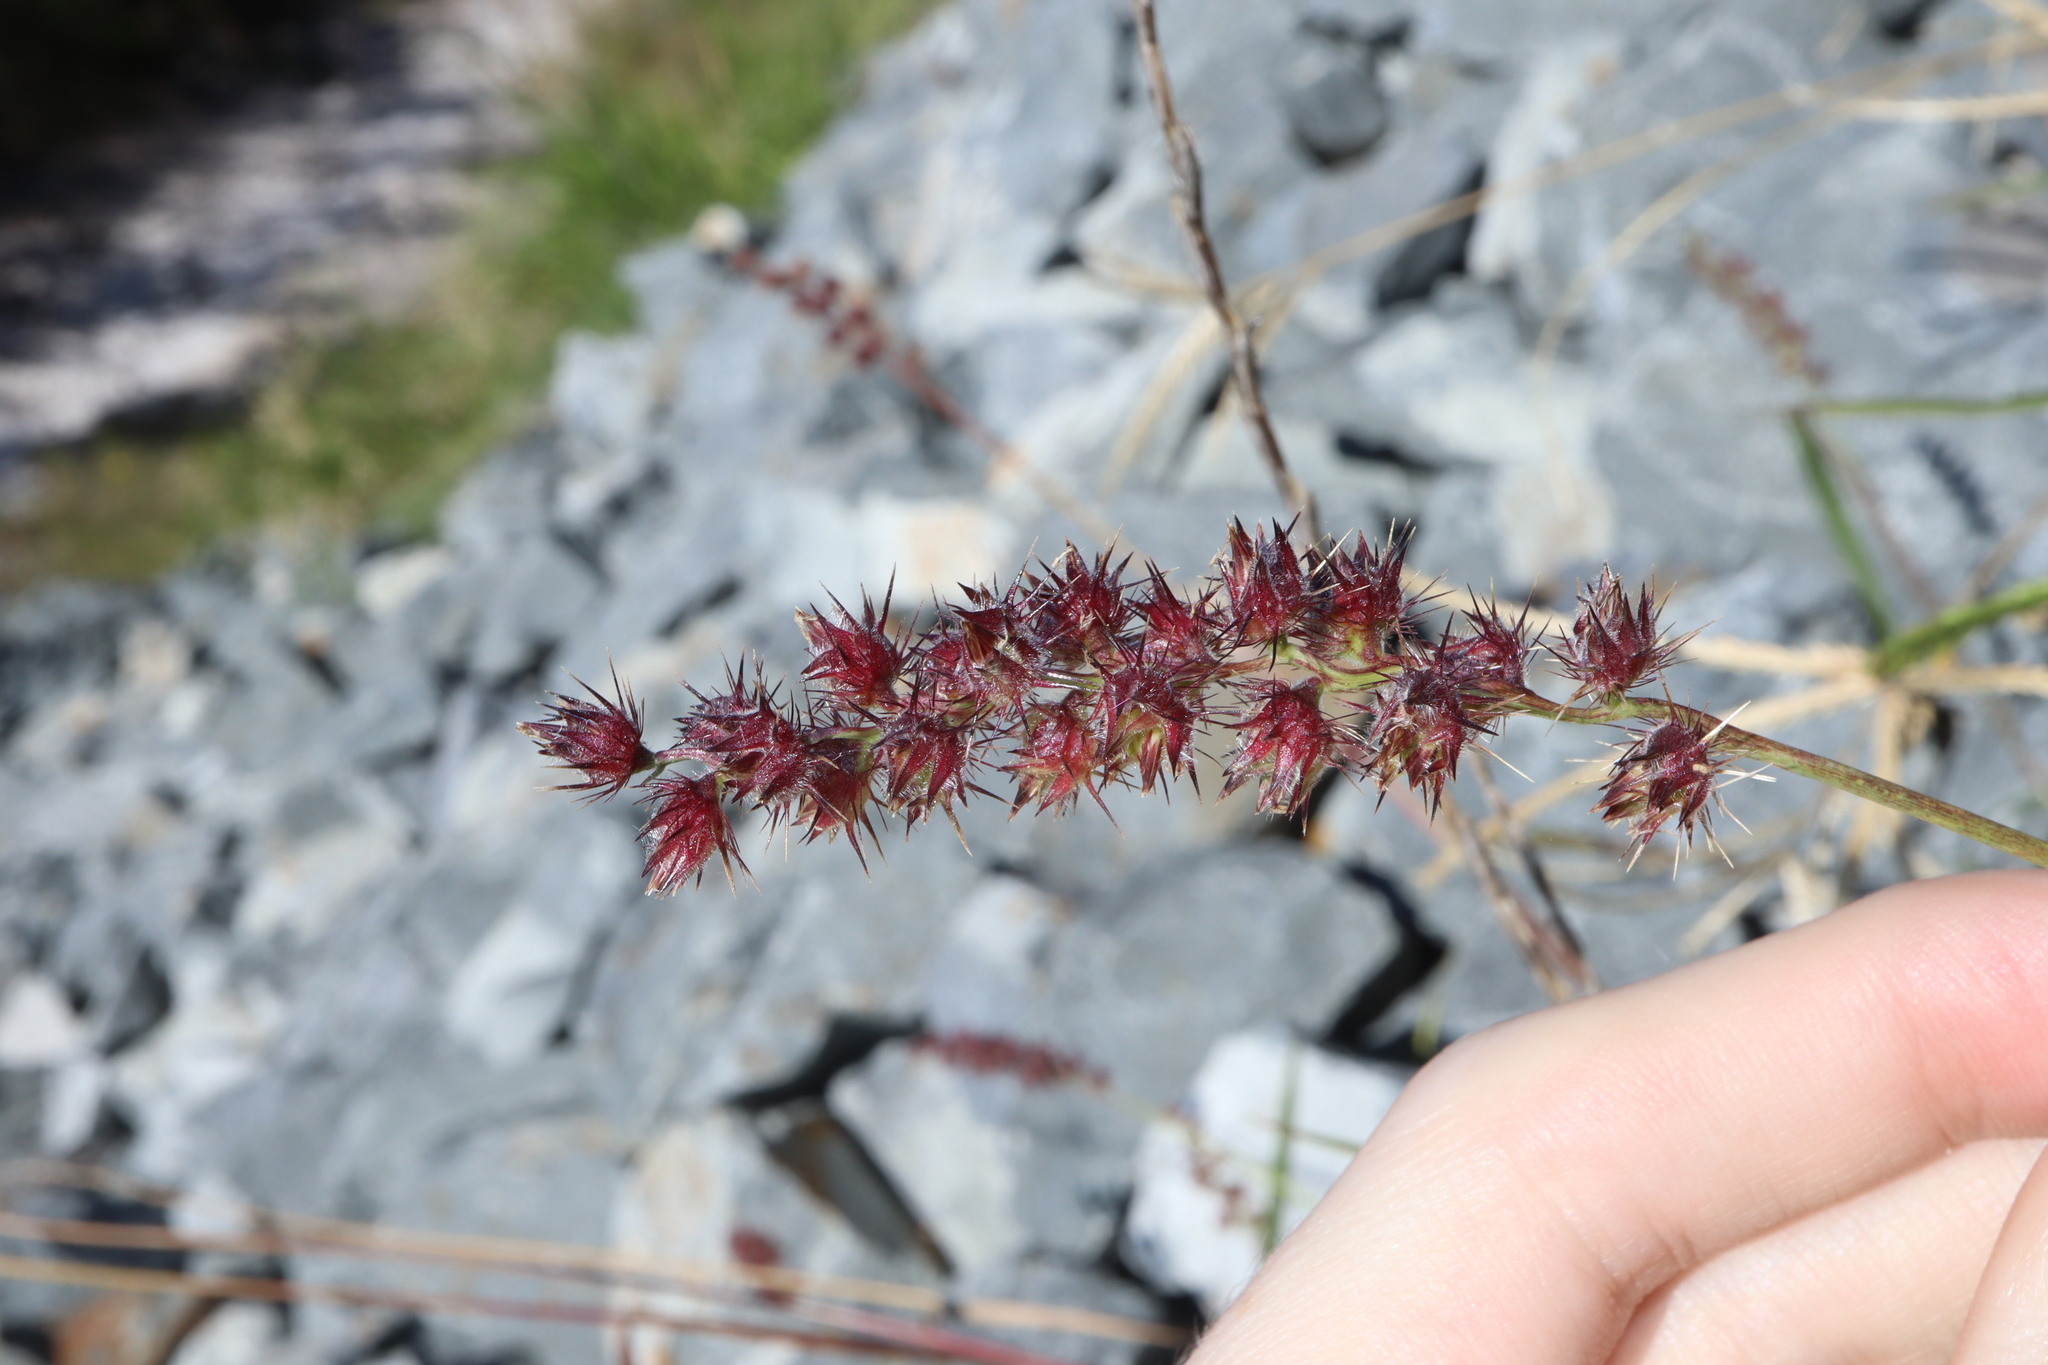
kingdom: Plantae
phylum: Tracheophyta
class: Liliopsida
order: Poales
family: Poaceae
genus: Cenchrus
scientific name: Cenchrus echinatus
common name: Southern sandbur
